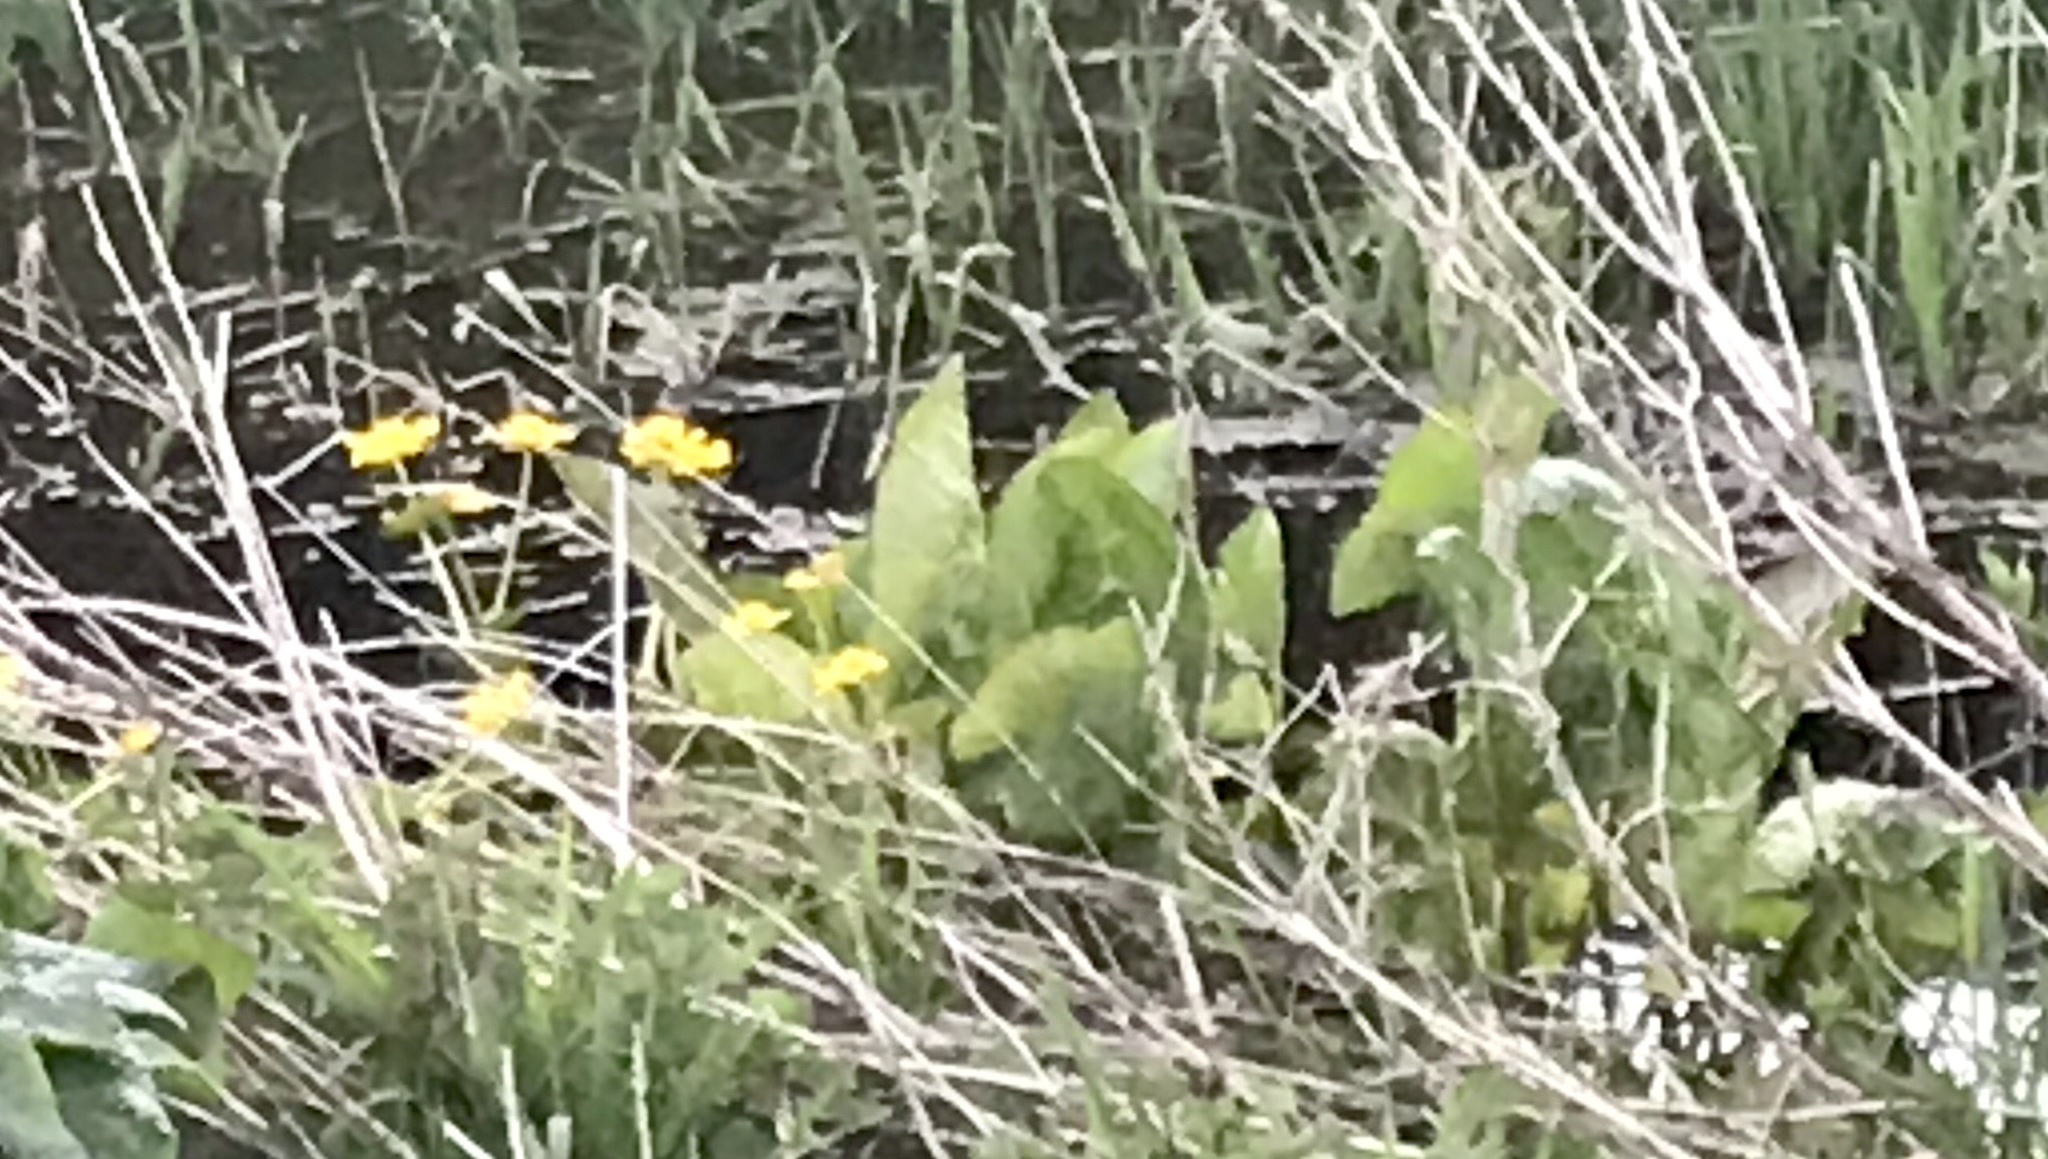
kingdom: Plantae
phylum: Tracheophyta
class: Magnoliopsida
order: Ranunculales
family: Ranunculaceae
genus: Caltha
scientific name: Caltha palustris
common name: Marsh marigold
